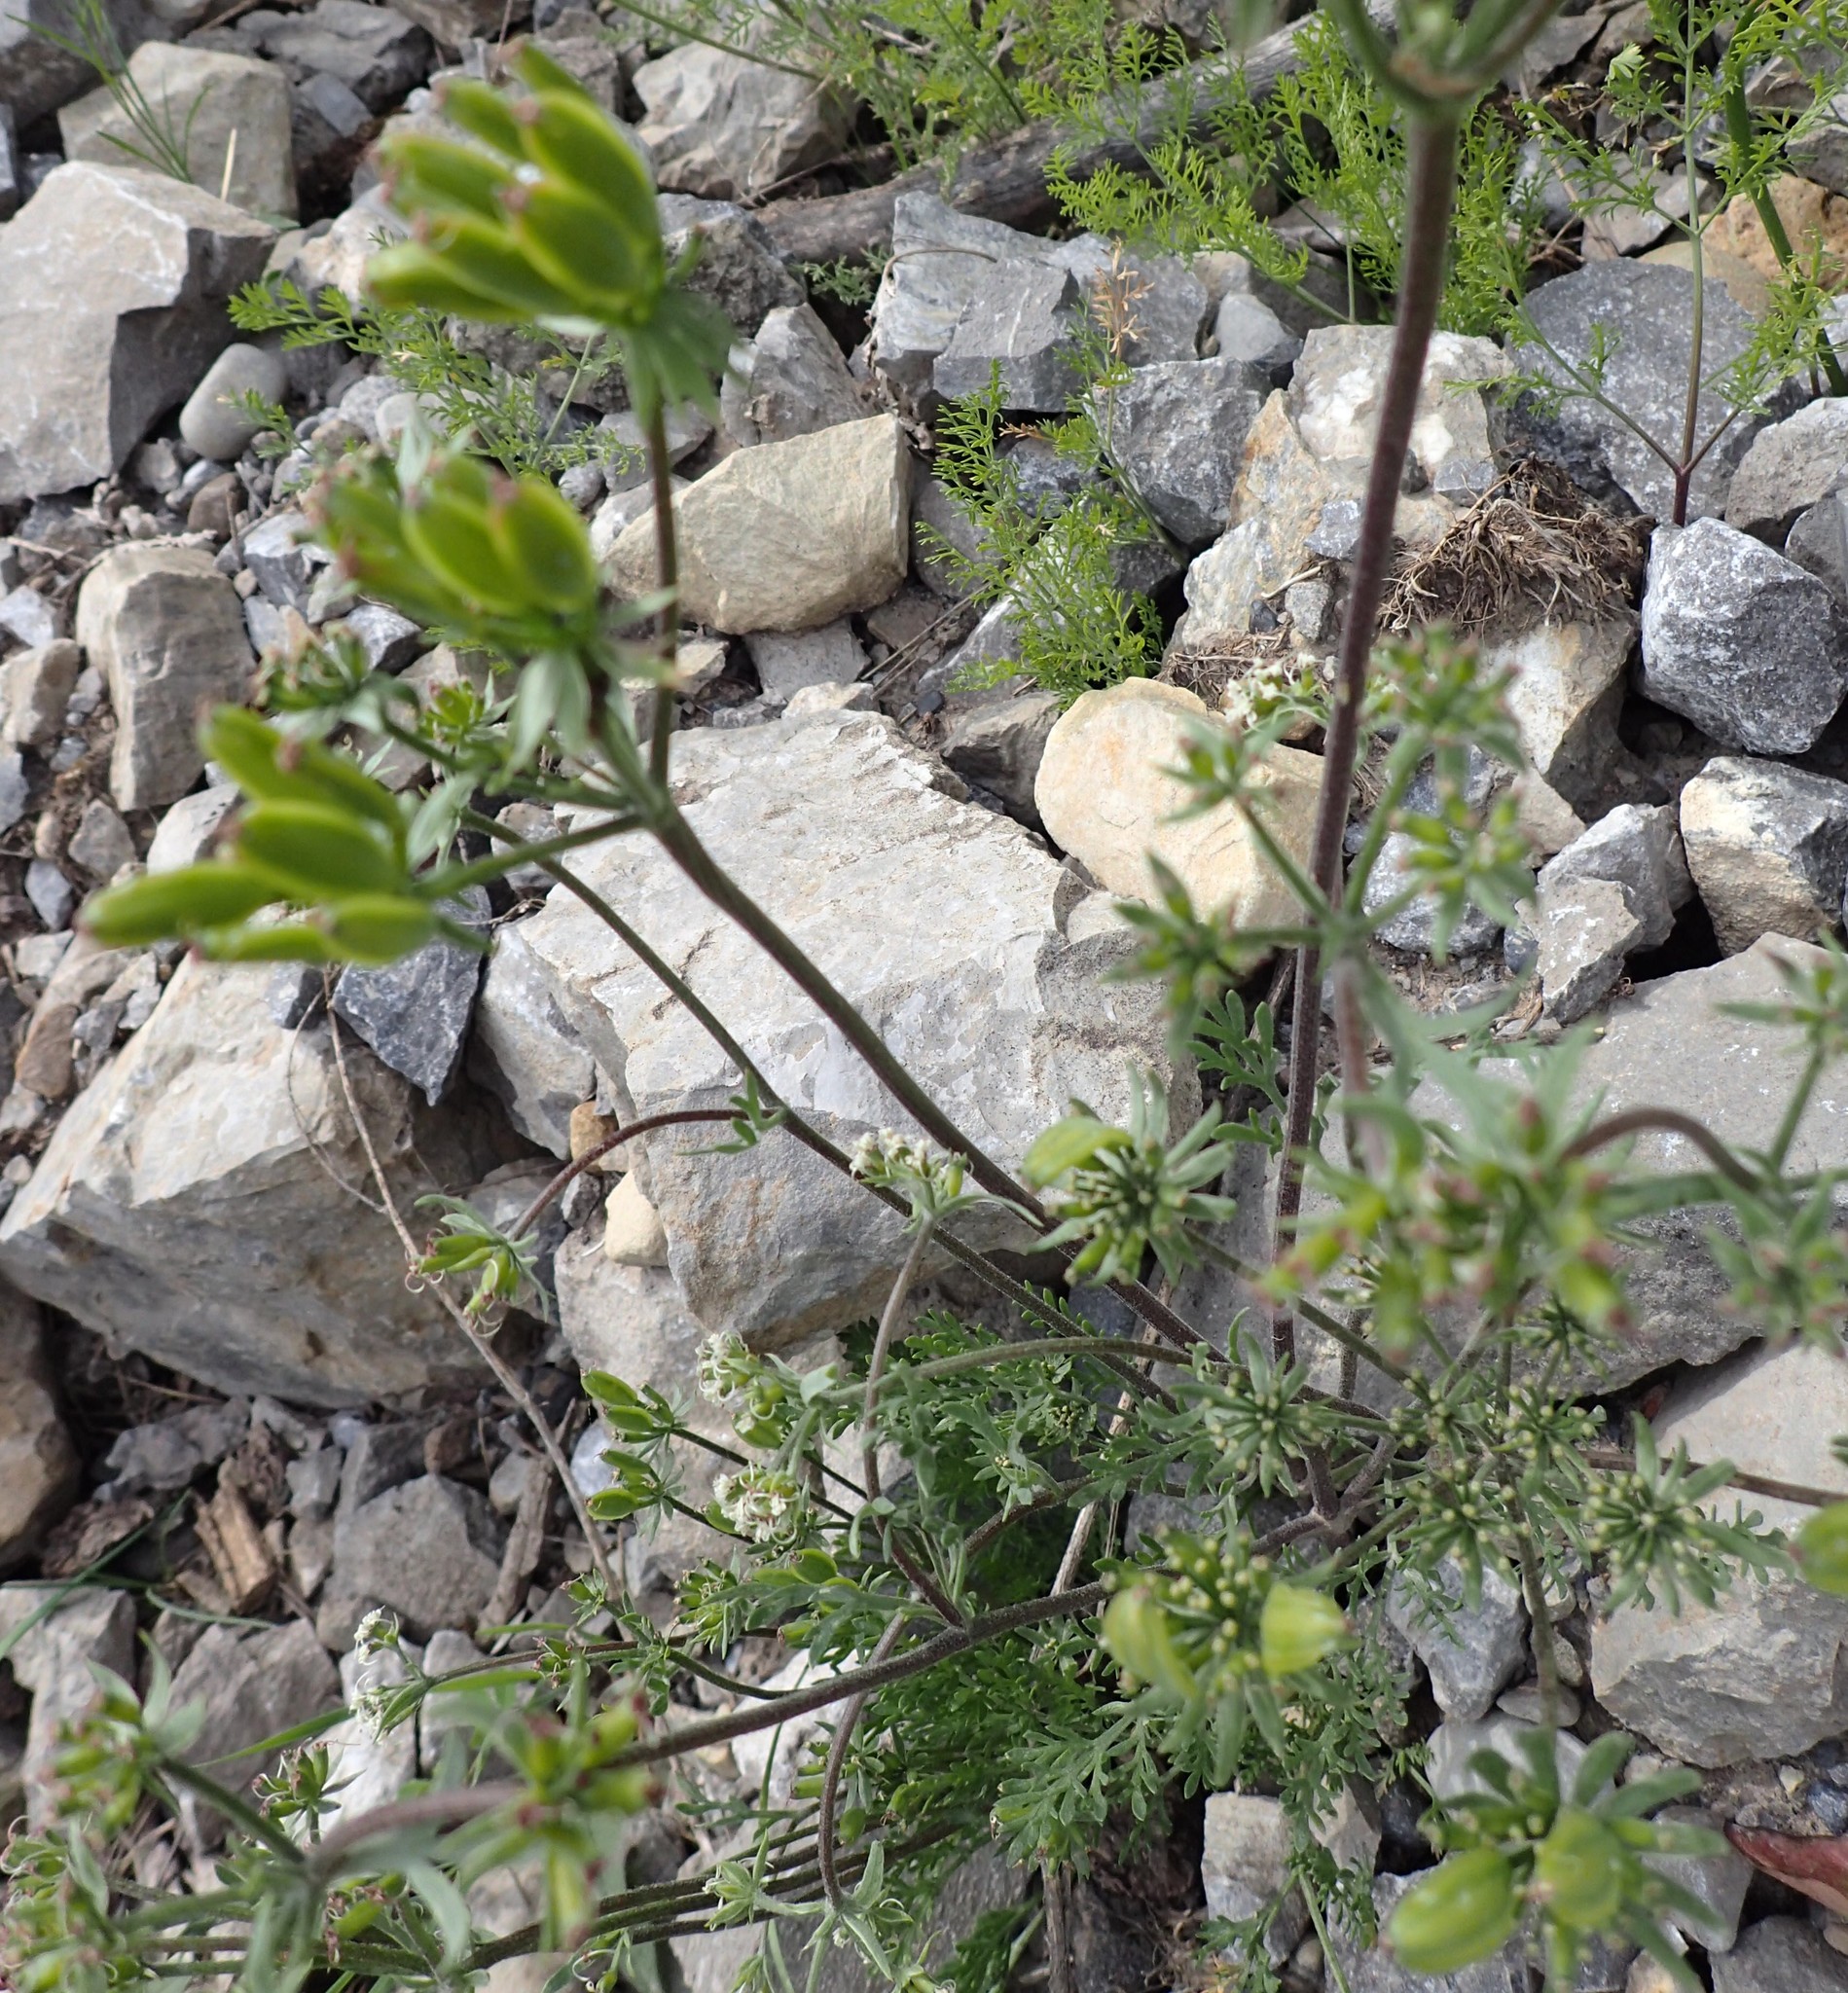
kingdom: Plantae
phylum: Tracheophyta
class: Magnoliopsida
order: Apiales
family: Apiaceae
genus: Lomatium
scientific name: Lomatium macrocarpum
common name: Big-seed biscuitroot
